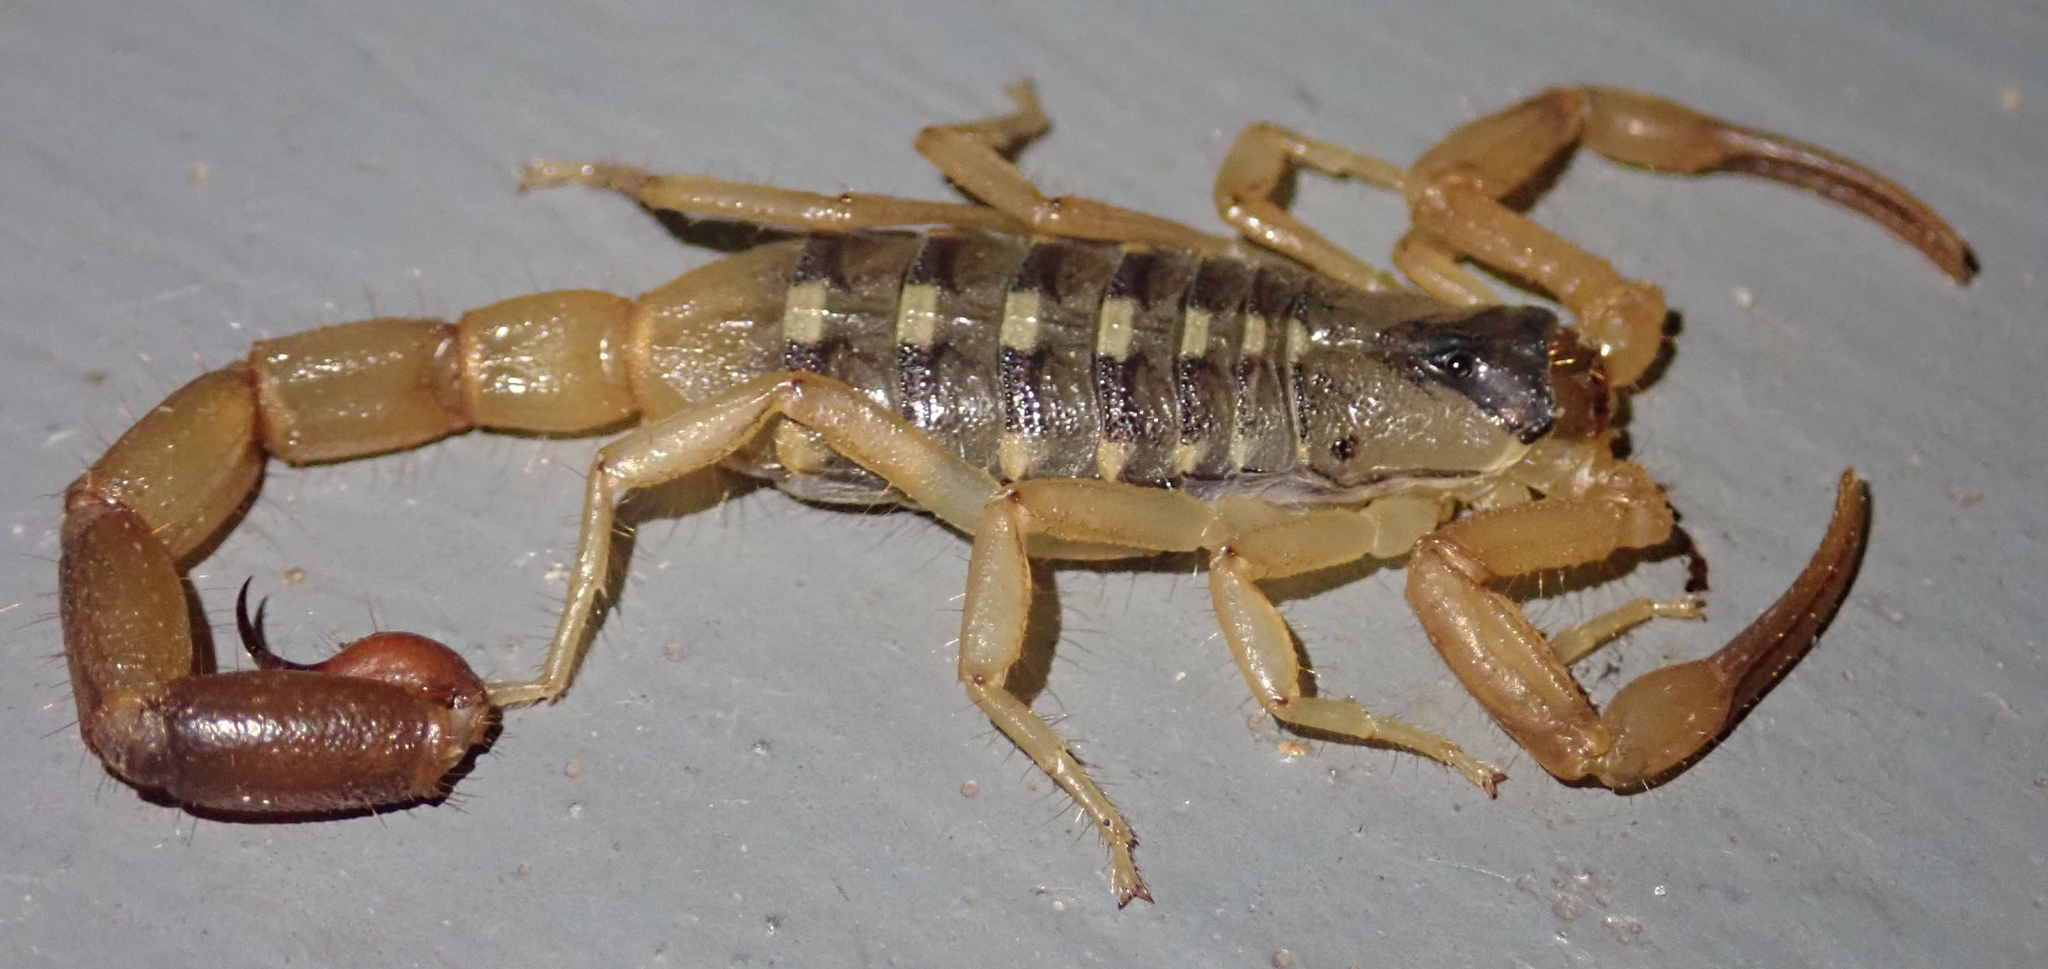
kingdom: Animalia
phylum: Arthropoda
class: Arachnida
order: Scorpiones
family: Buthidae
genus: Uroplectes
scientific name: Uroplectes vittatus
